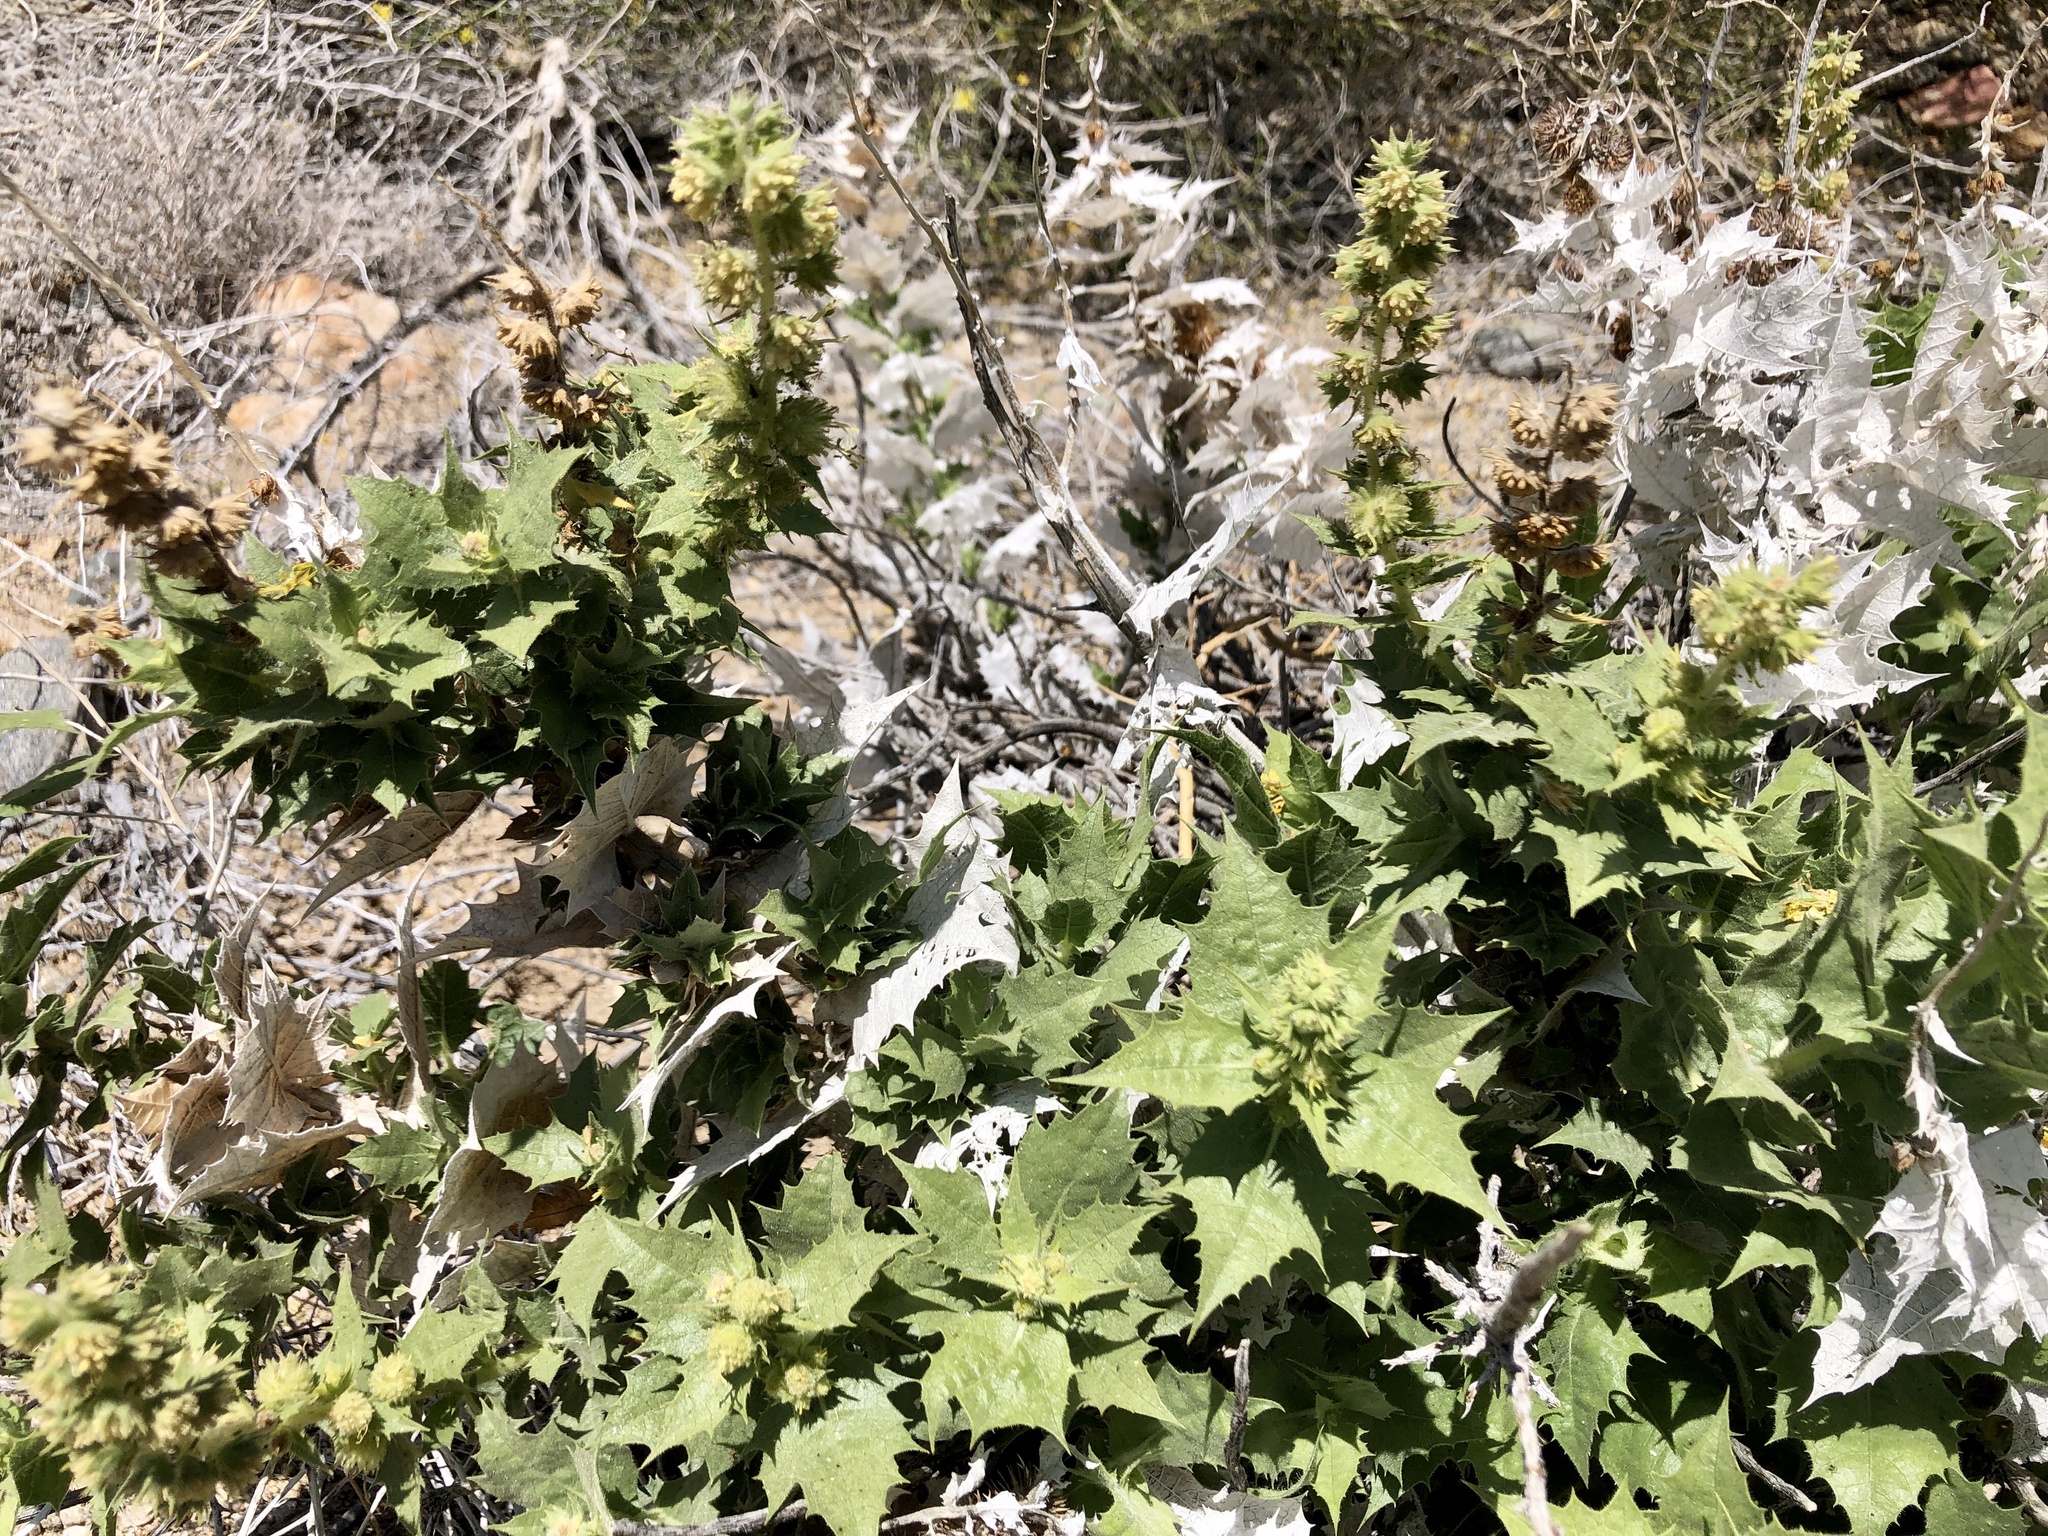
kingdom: Plantae
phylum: Tracheophyta
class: Magnoliopsida
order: Asterales
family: Asteraceae
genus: Ambrosia
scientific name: Ambrosia ilicifolia
